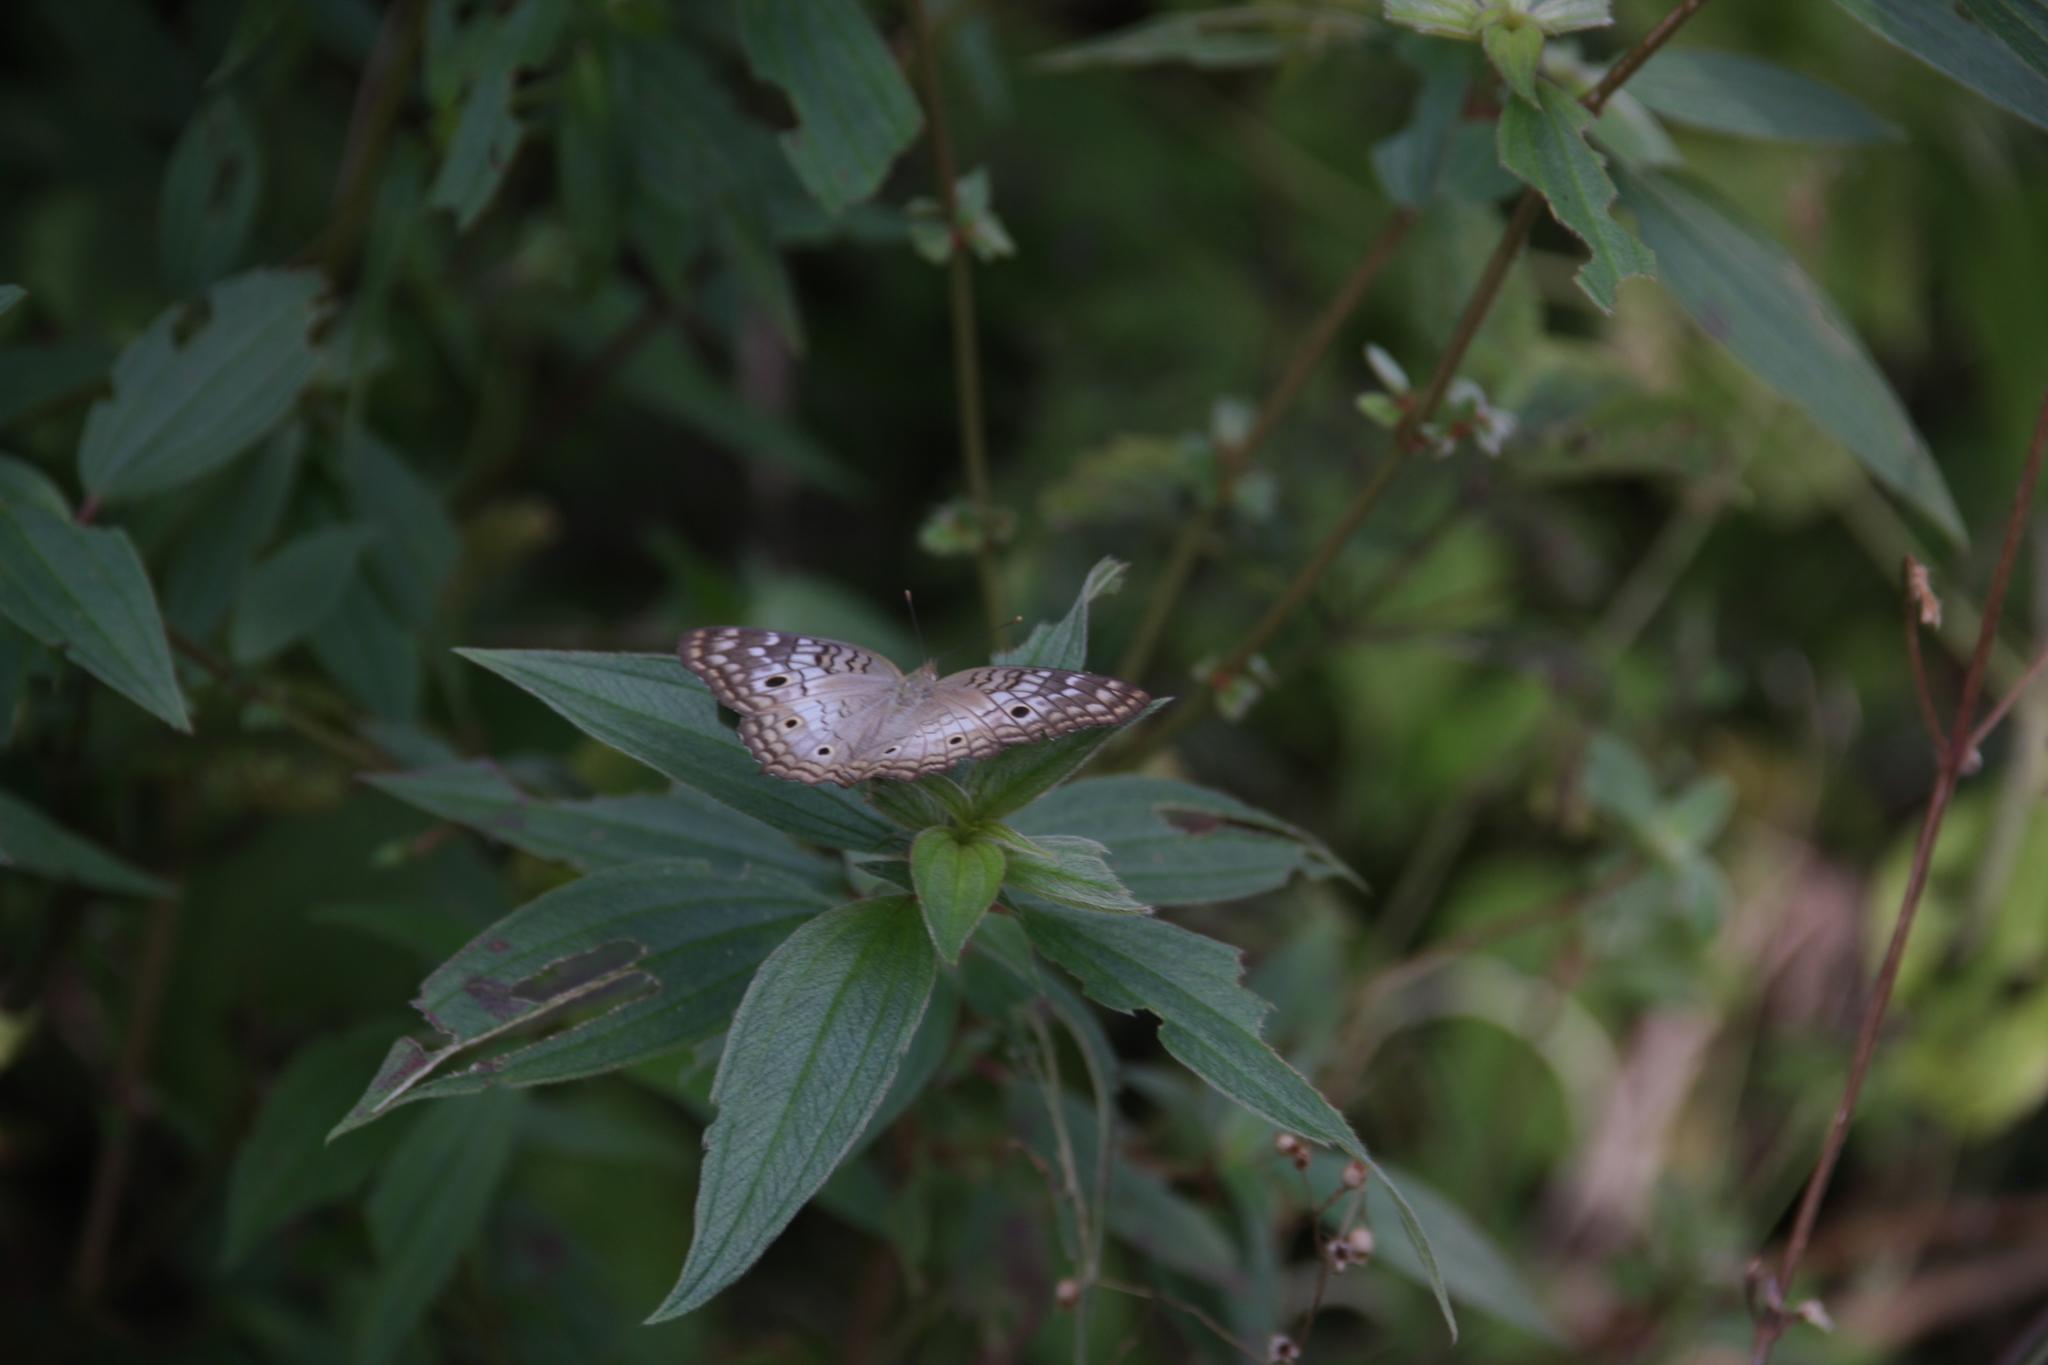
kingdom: Animalia
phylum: Arthropoda
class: Insecta
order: Lepidoptera
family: Nymphalidae
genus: Anartia
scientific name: Anartia jatrophae
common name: White peacock
